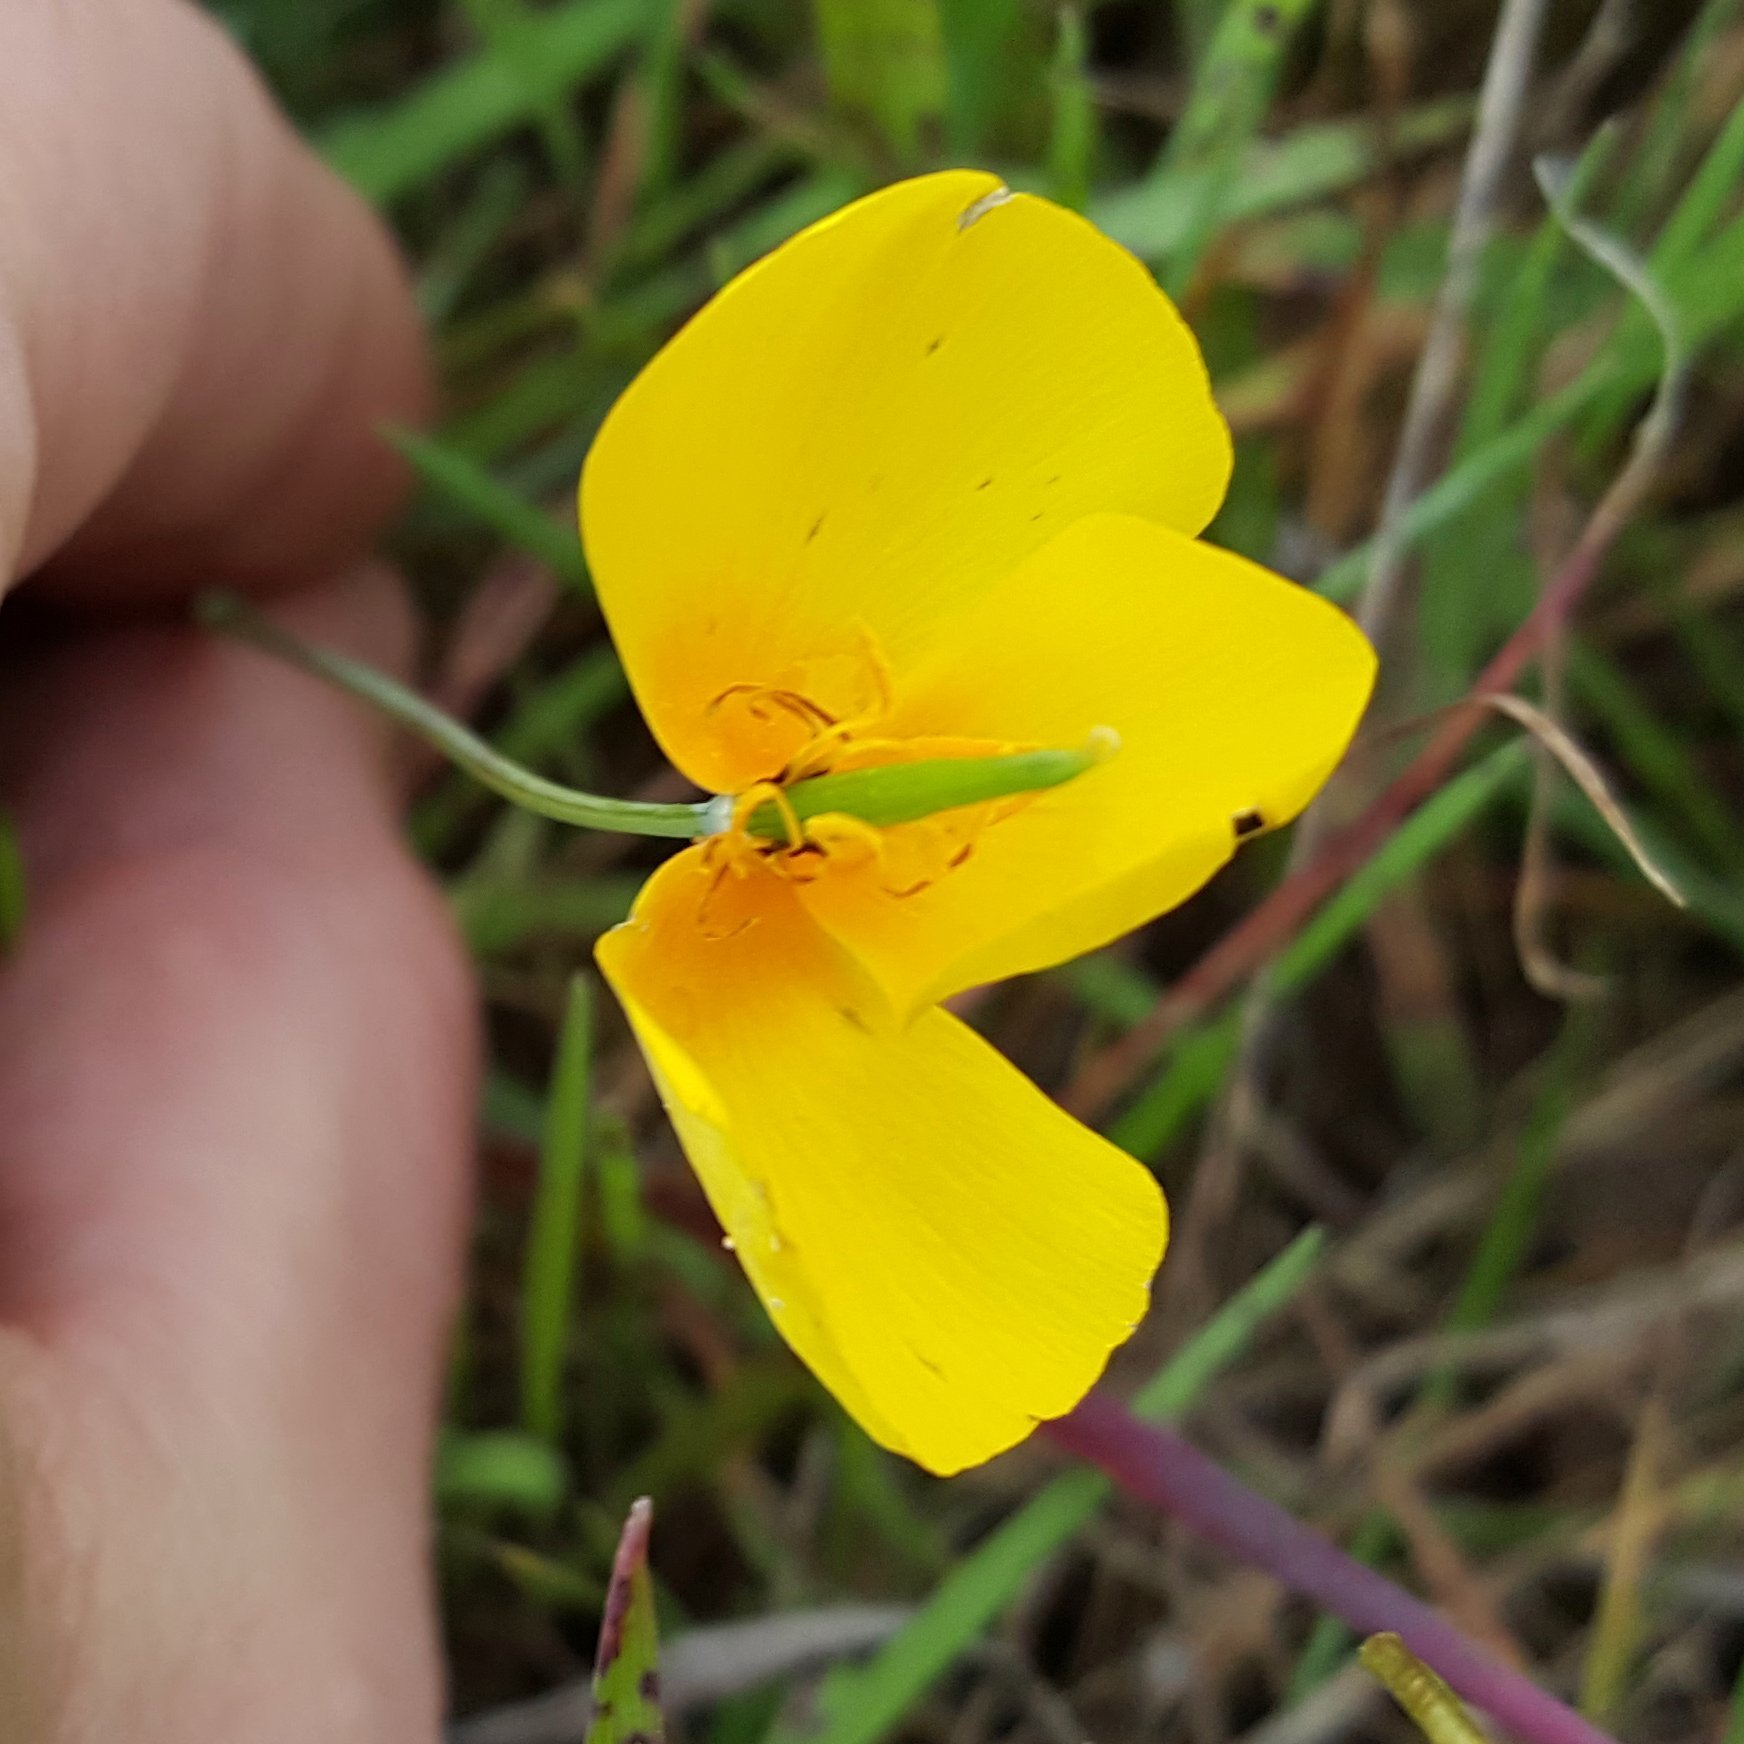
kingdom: Plantae
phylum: Tracheophyta
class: Magnoliopsida
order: Ranunculales
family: Papaveraceae
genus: Eschscholzia
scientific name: Eschscholzia caespitosa
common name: Tufted california-poppy
